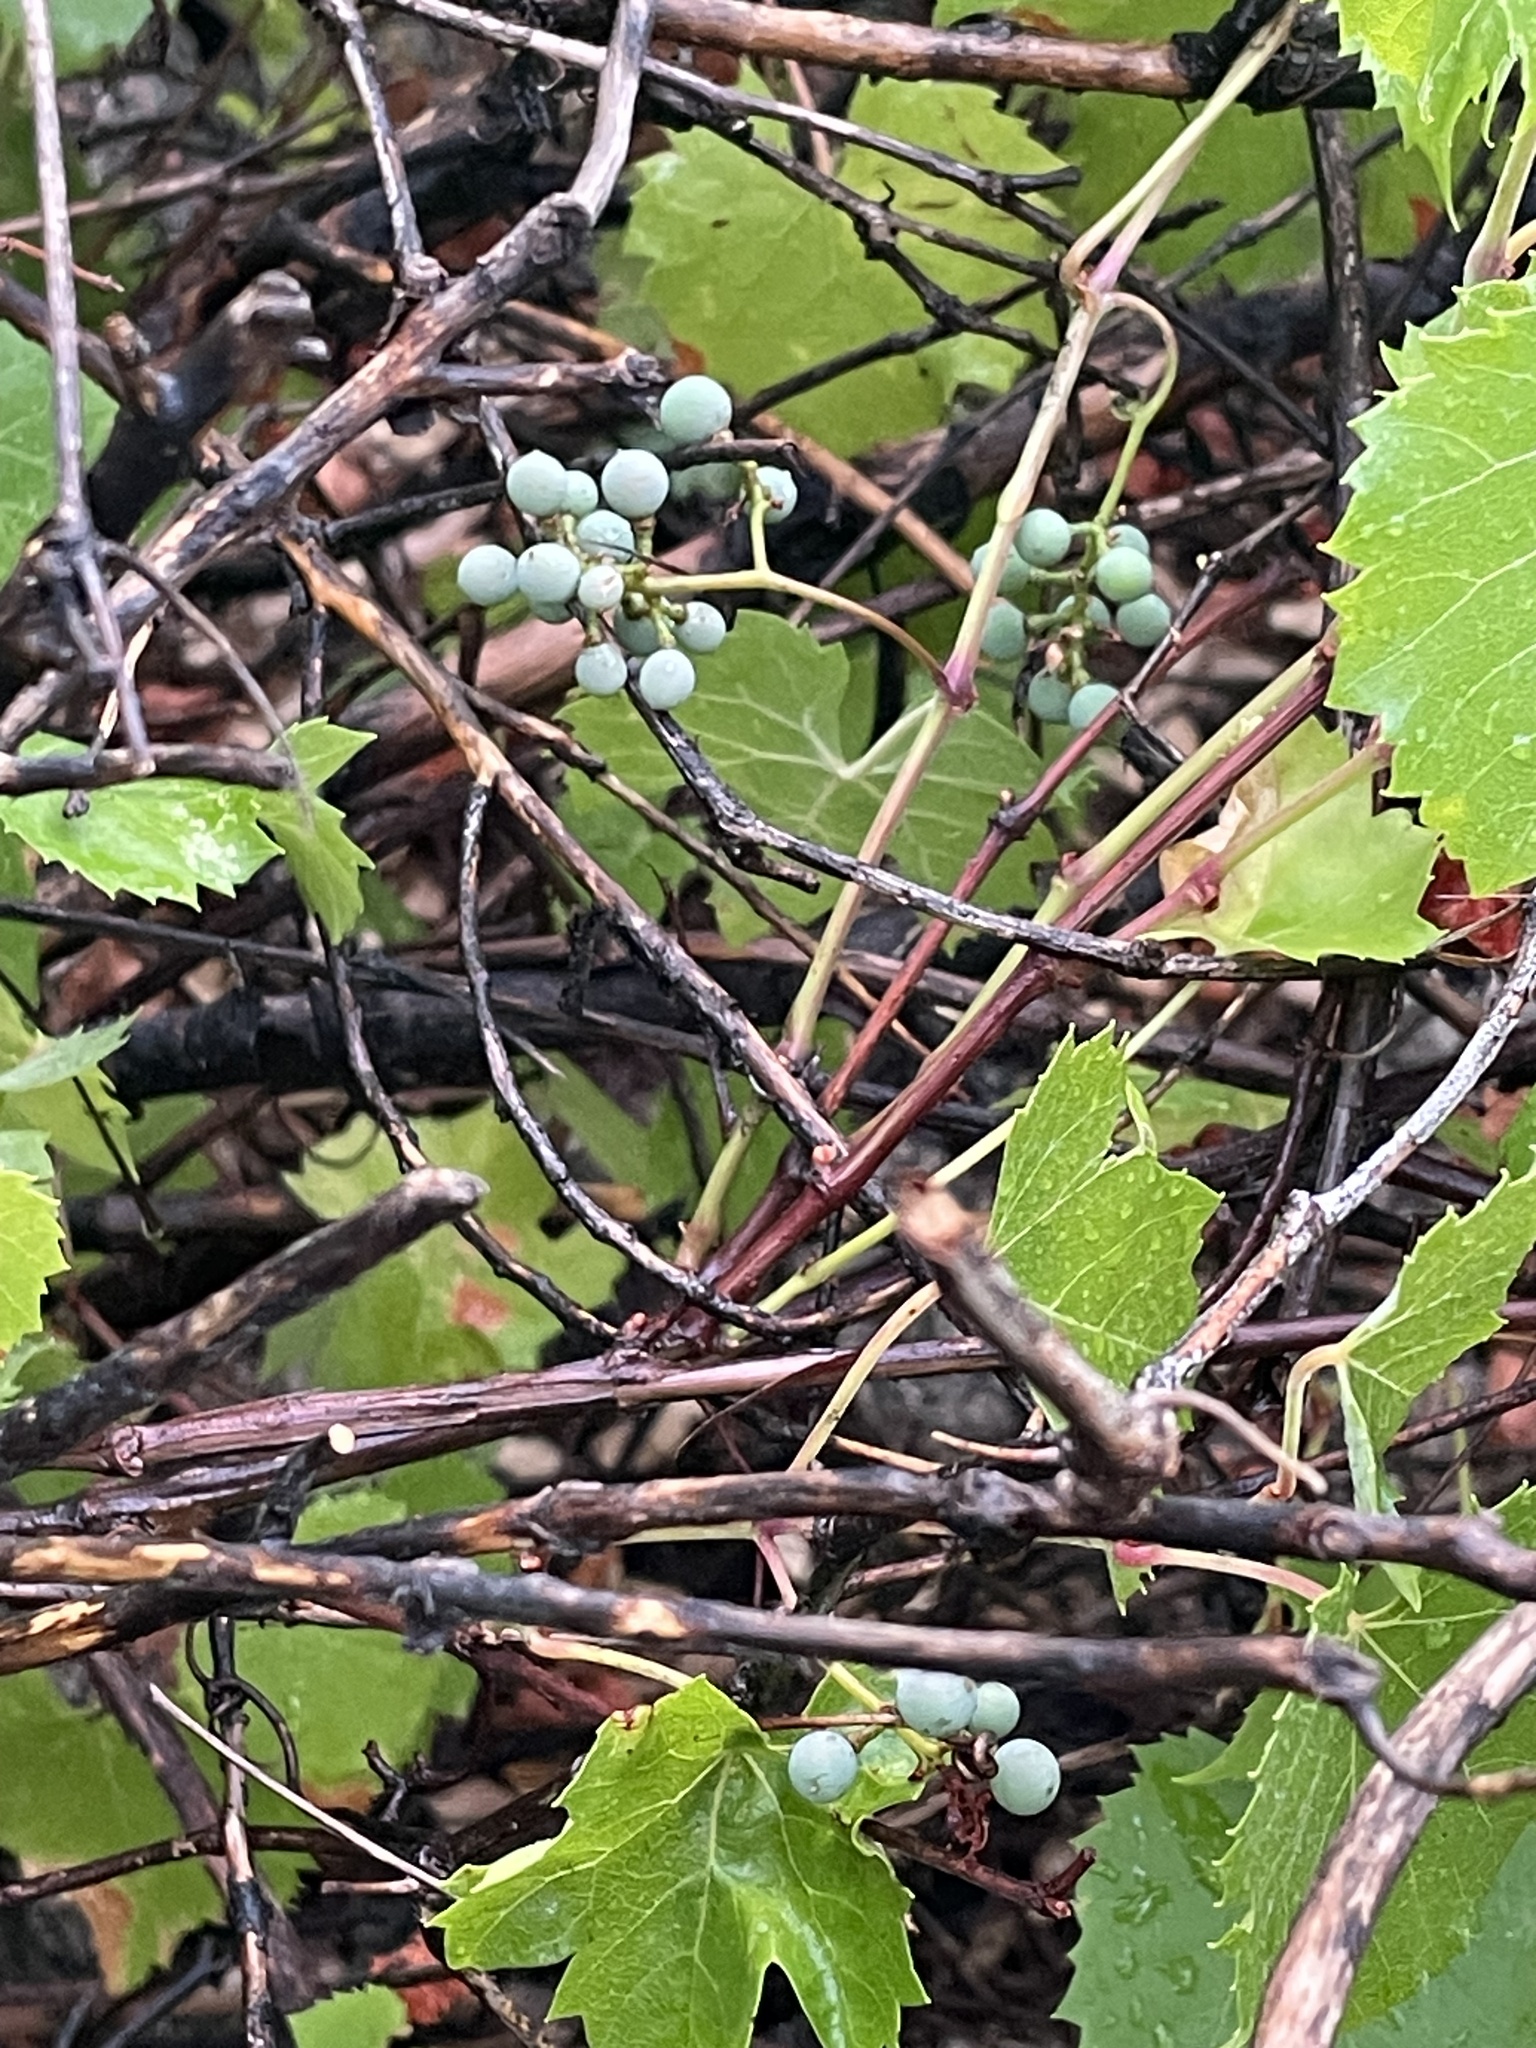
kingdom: Plantae
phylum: Tracheophyta
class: Magnoliopsida
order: Vitales
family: Vitaceae
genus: Vitis
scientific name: Vitis arizonica
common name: Canyon grape
